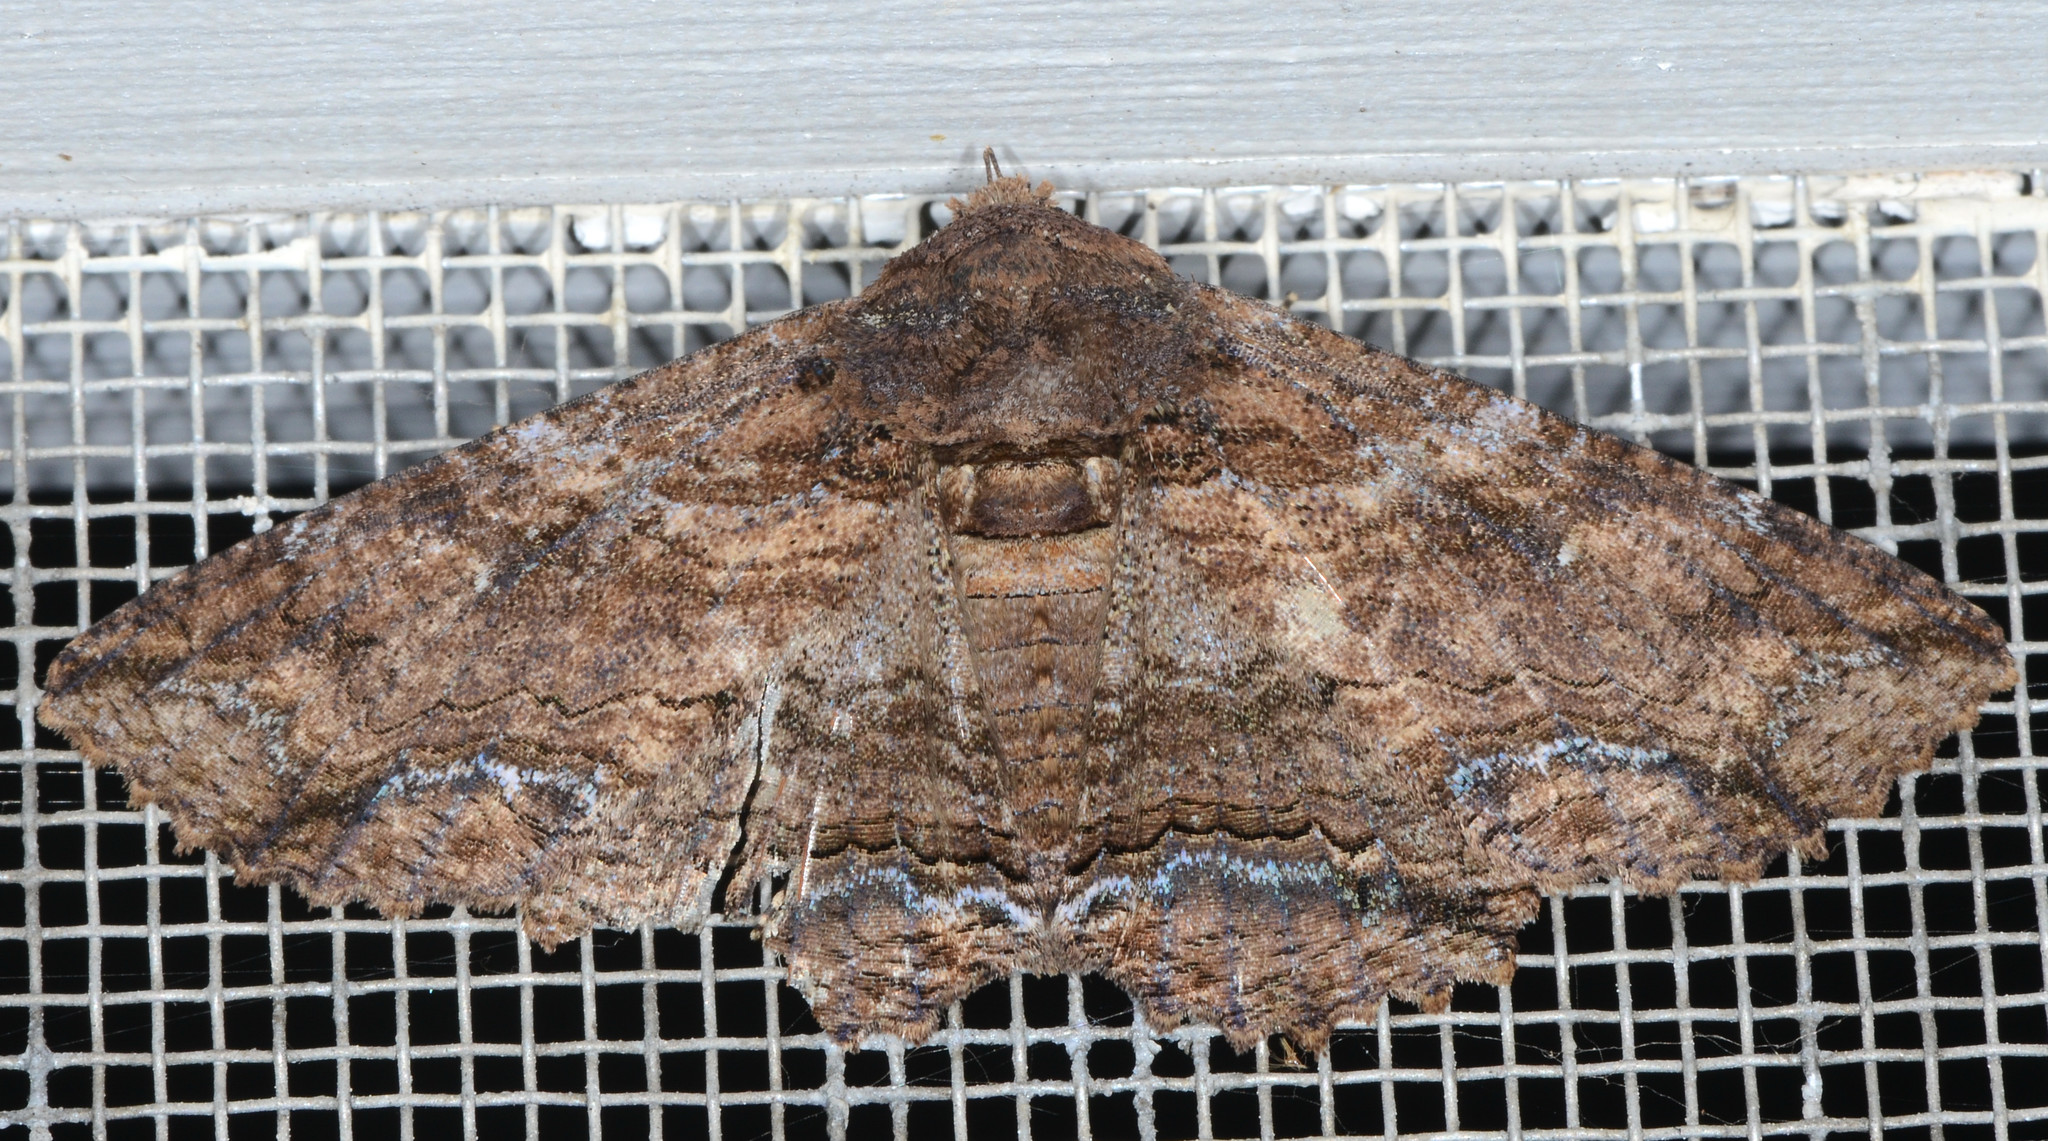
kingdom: Animalia
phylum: Arthropoda
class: Insecta
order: Lepidoptera
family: Erebidae
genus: Zale
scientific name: Zale lunata
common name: Lunate zale moth
